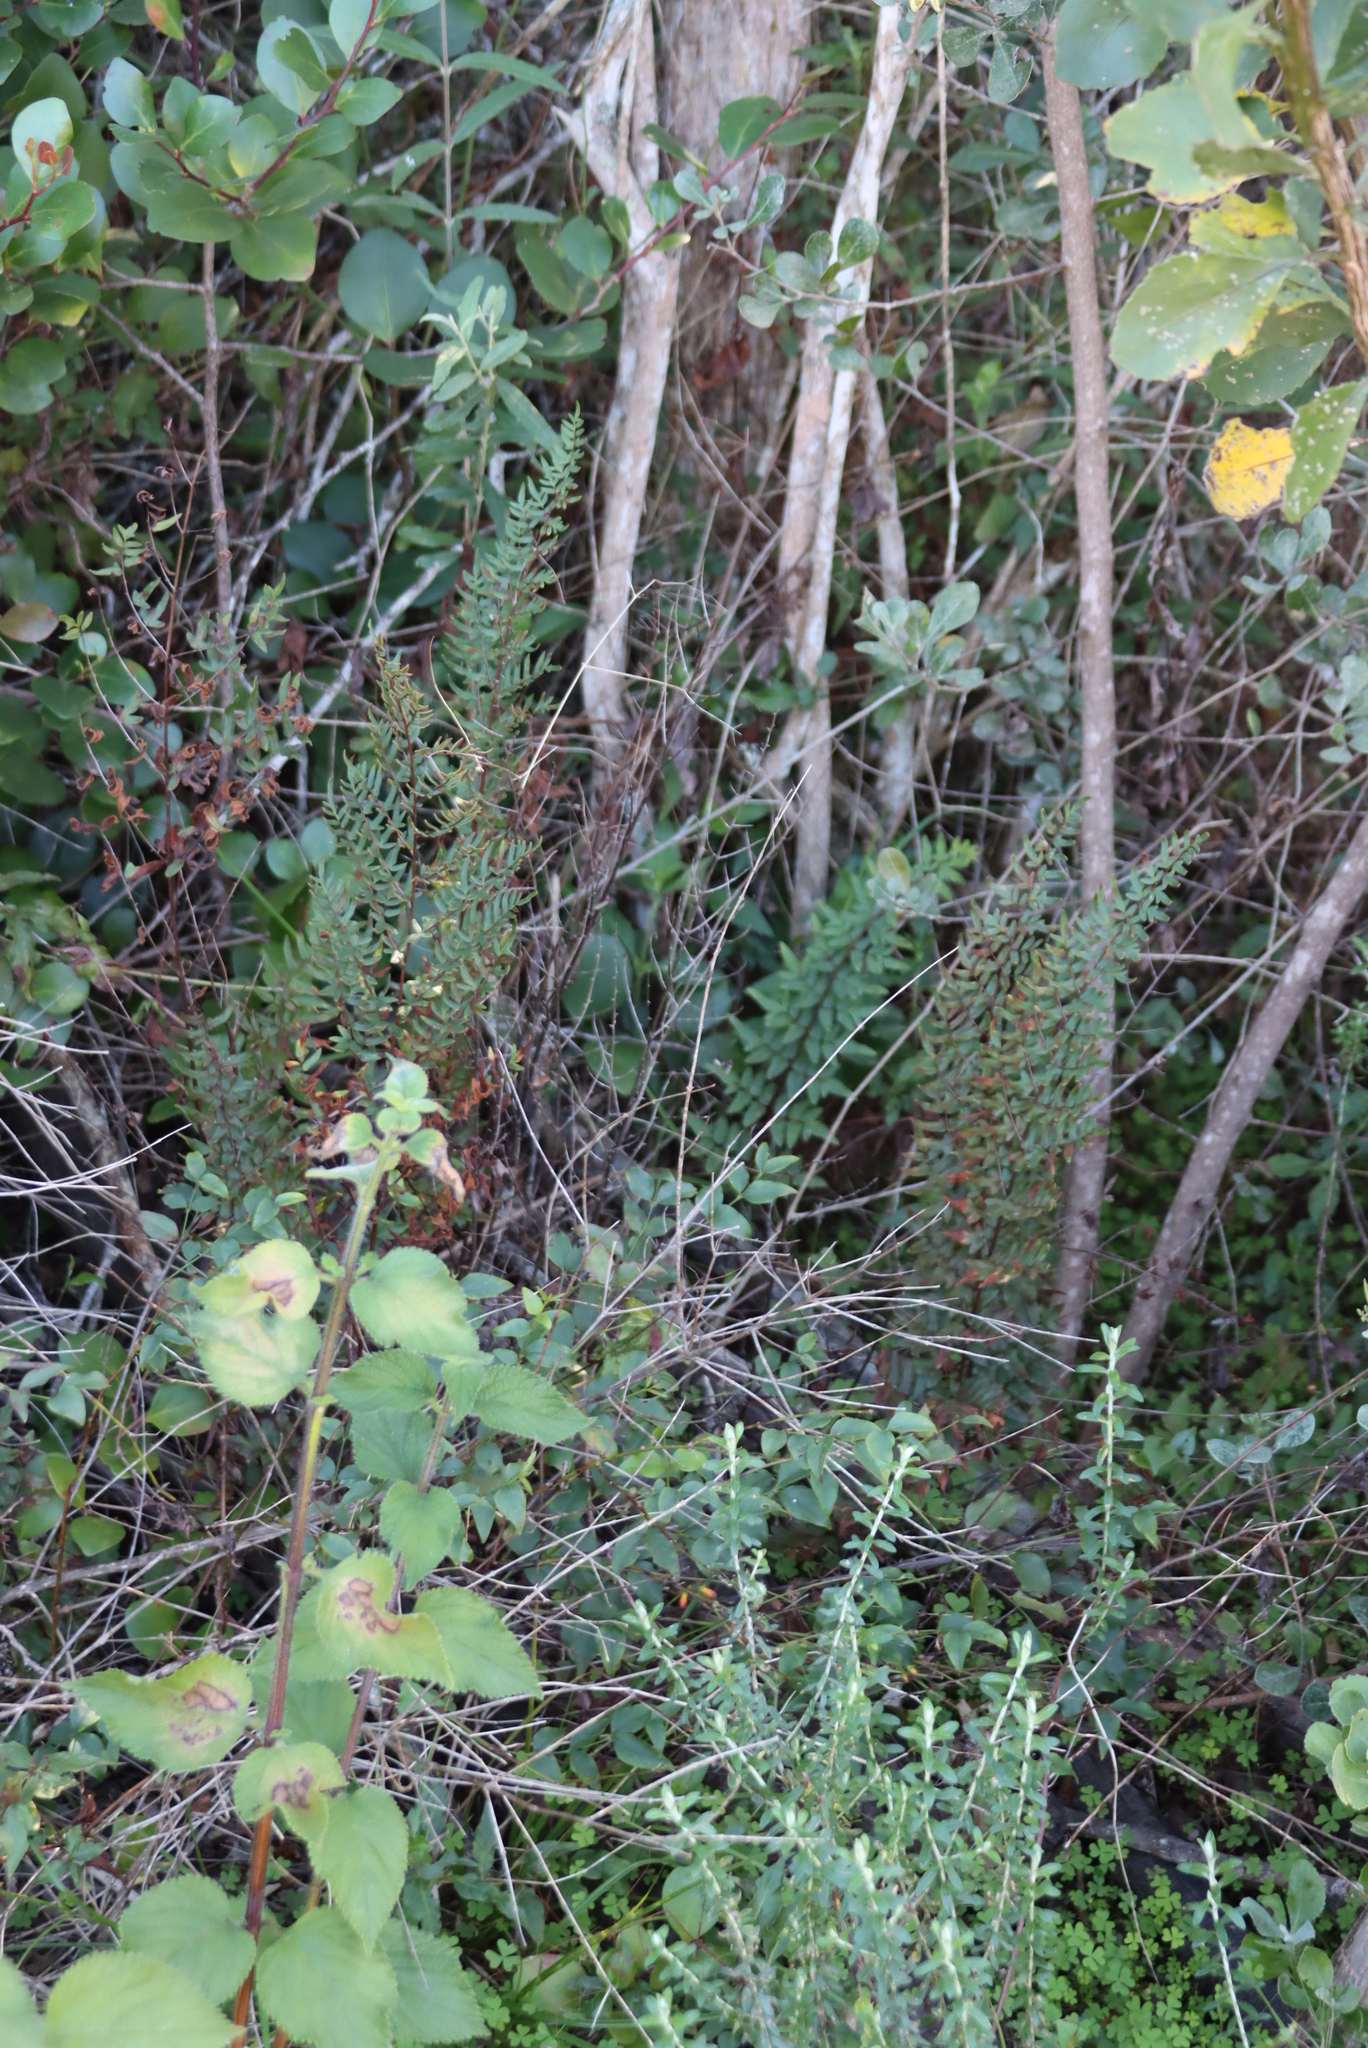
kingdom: Plantae
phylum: Tracheophyta
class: Polypodiopsida
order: Polypodiales
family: Pteridaceae
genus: Cheilanthes
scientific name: Cheilanthes viridis
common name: Green cliffbrake
